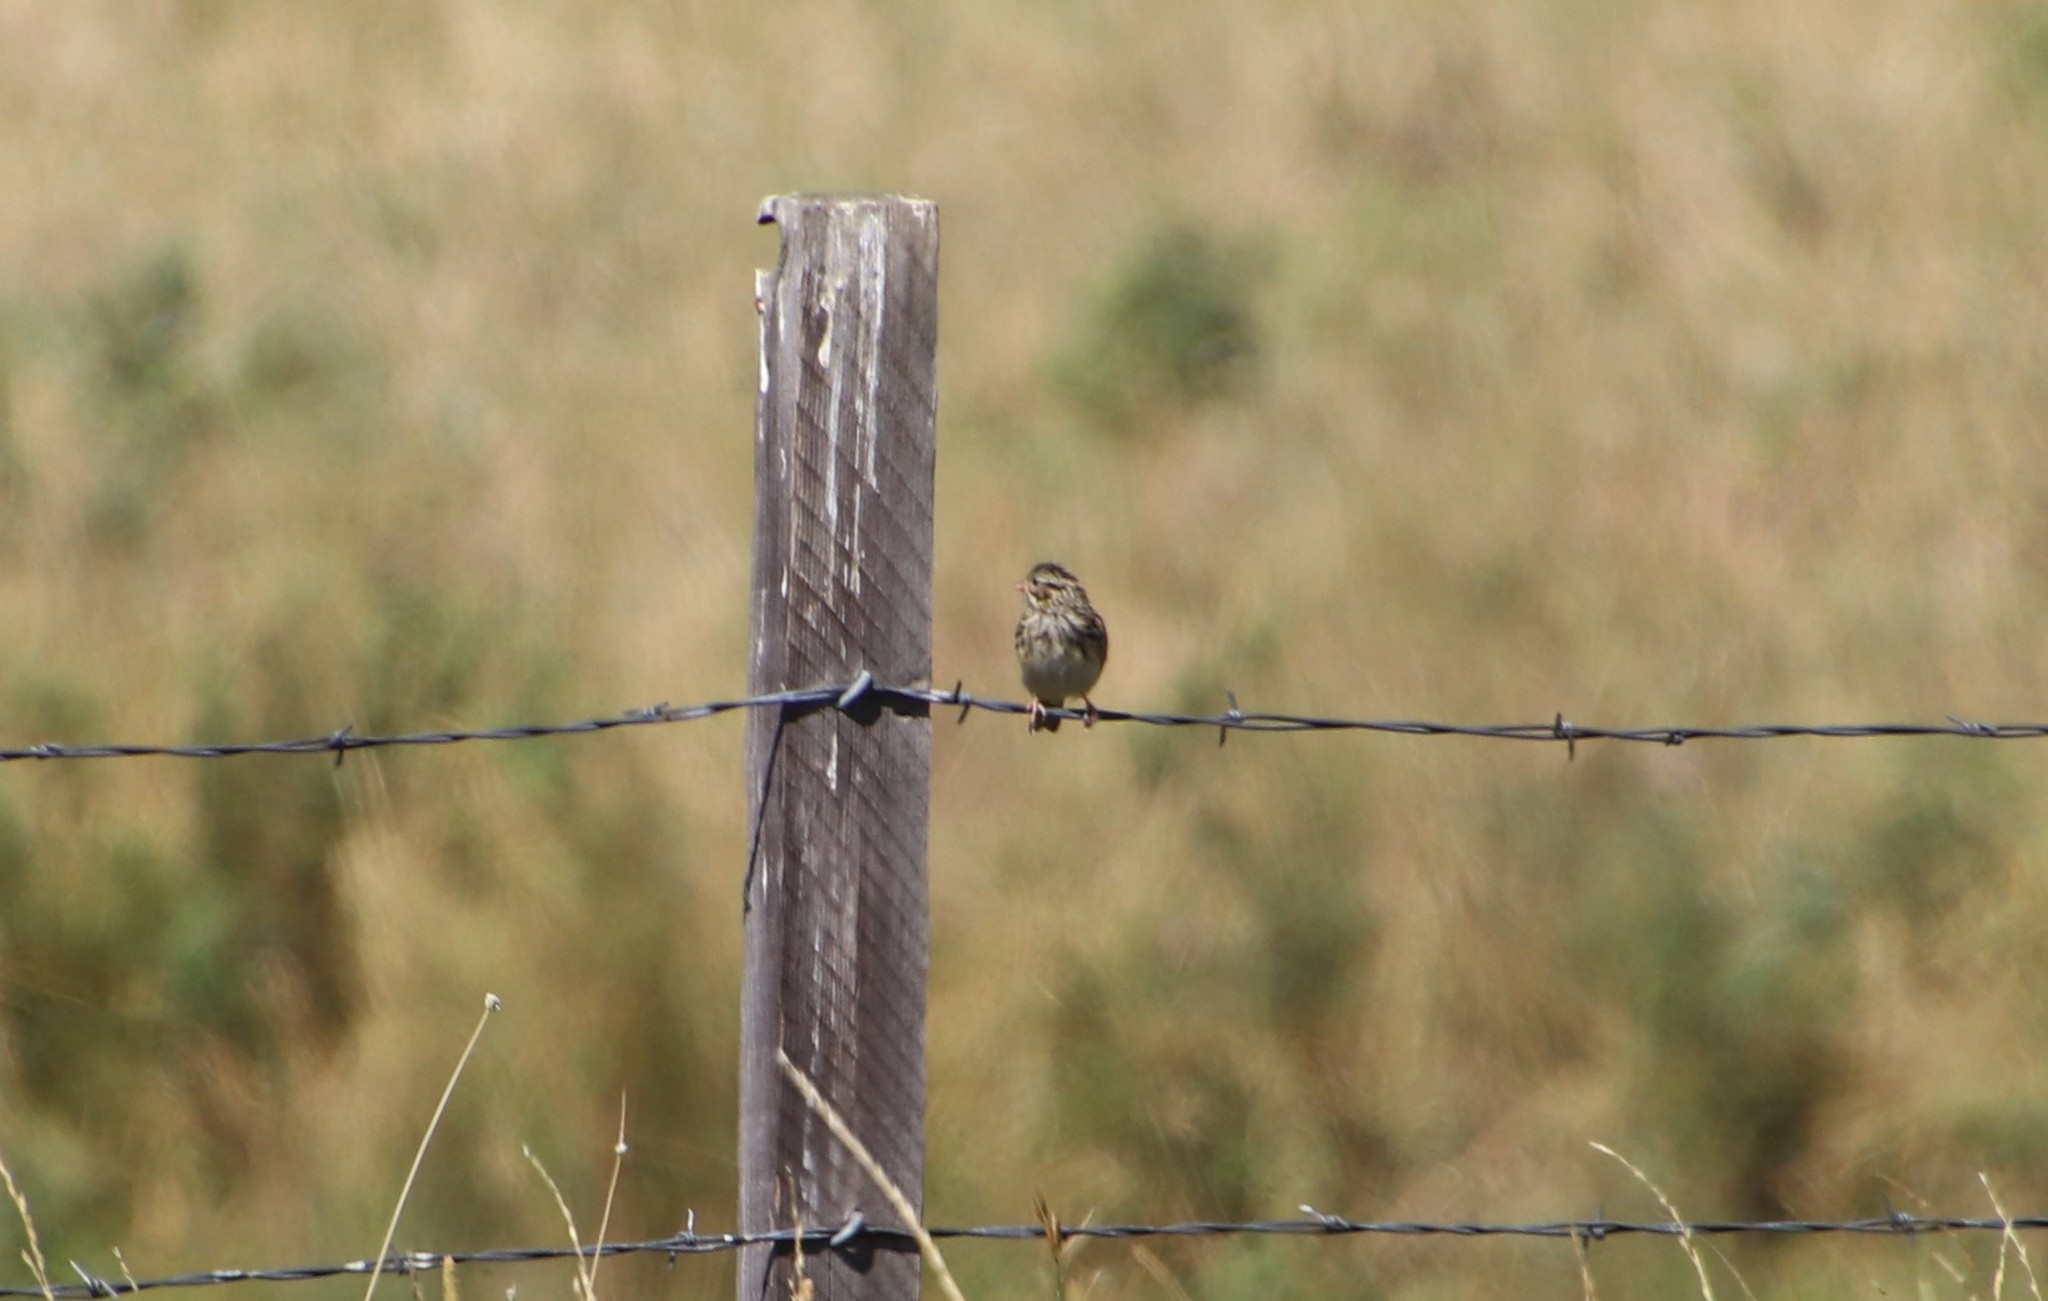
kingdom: Animalia
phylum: Chordata
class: Aves
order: Passeriformes
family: Passerellidae
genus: Passerculus
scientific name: Passerculus sandwichensis
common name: Savannah sparrow
